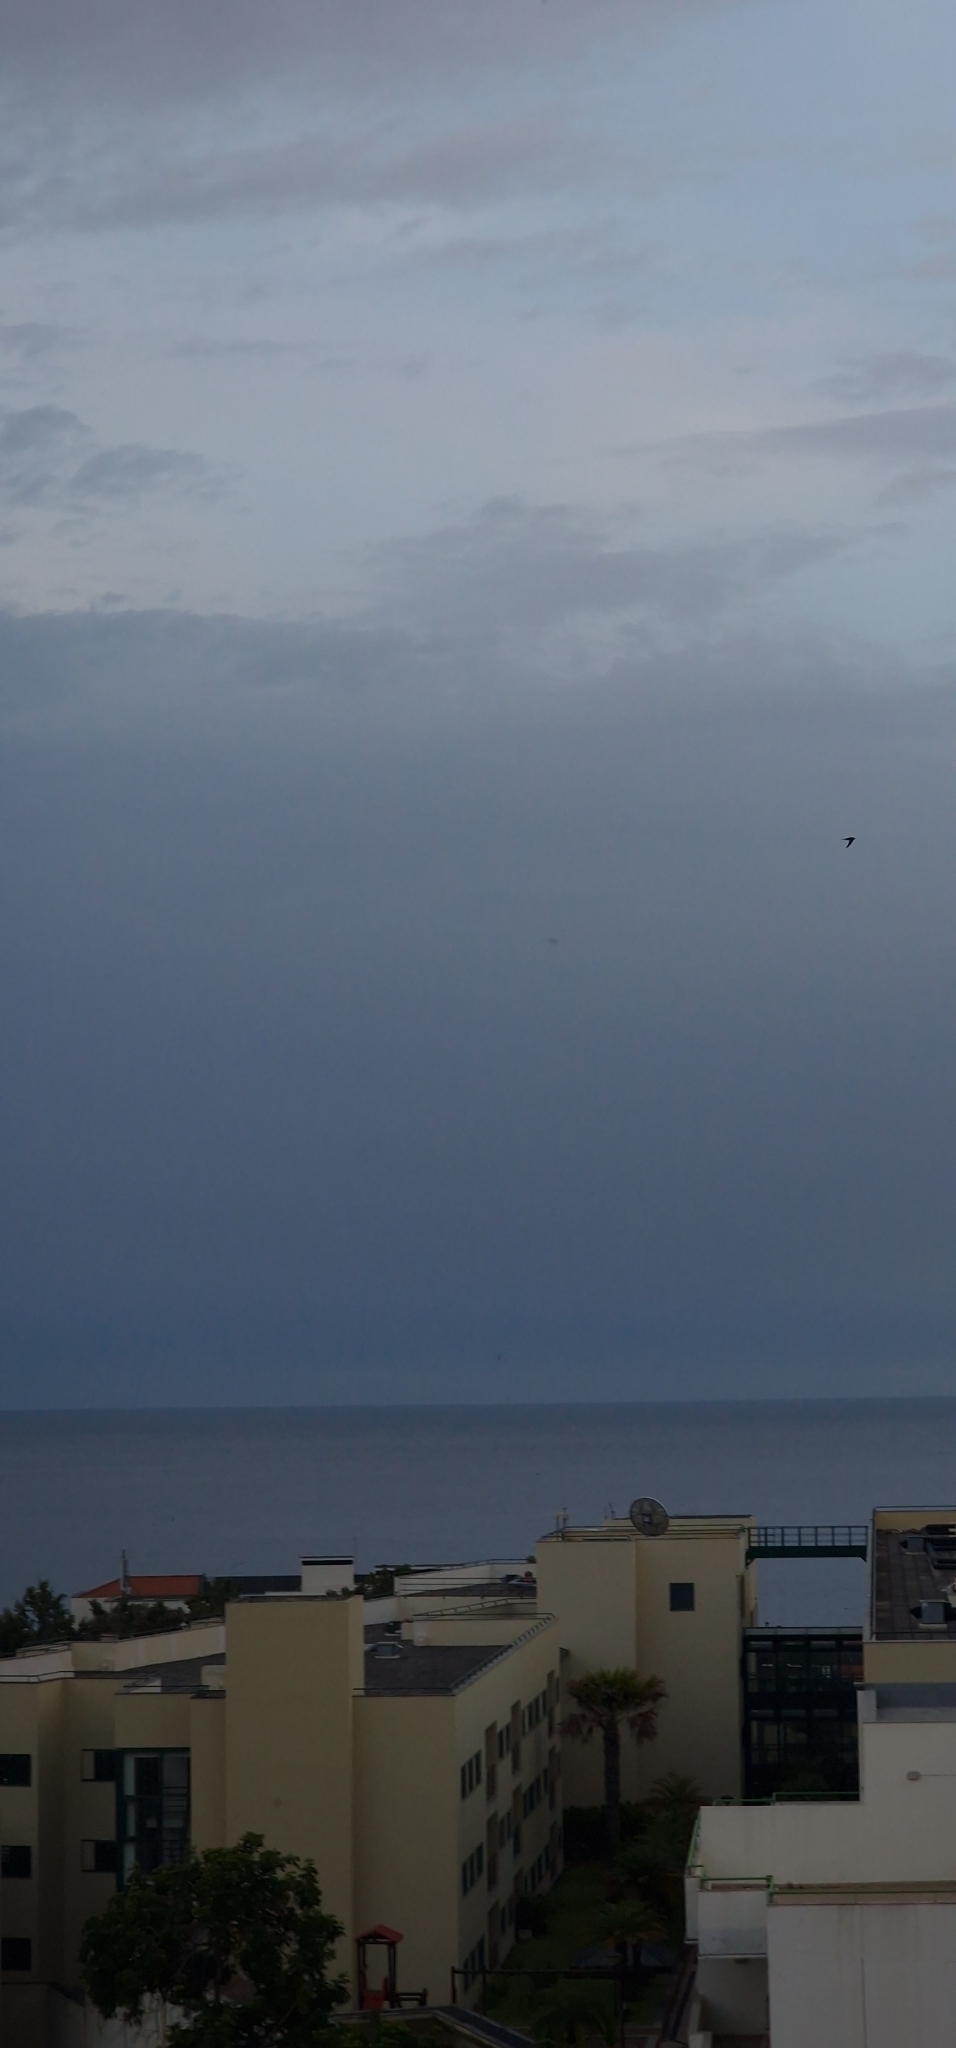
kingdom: Animalia
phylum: Chordata
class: Aves
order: Apodiformes
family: Apodidae
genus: Apus
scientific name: Apus unicolor
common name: Plain swift
